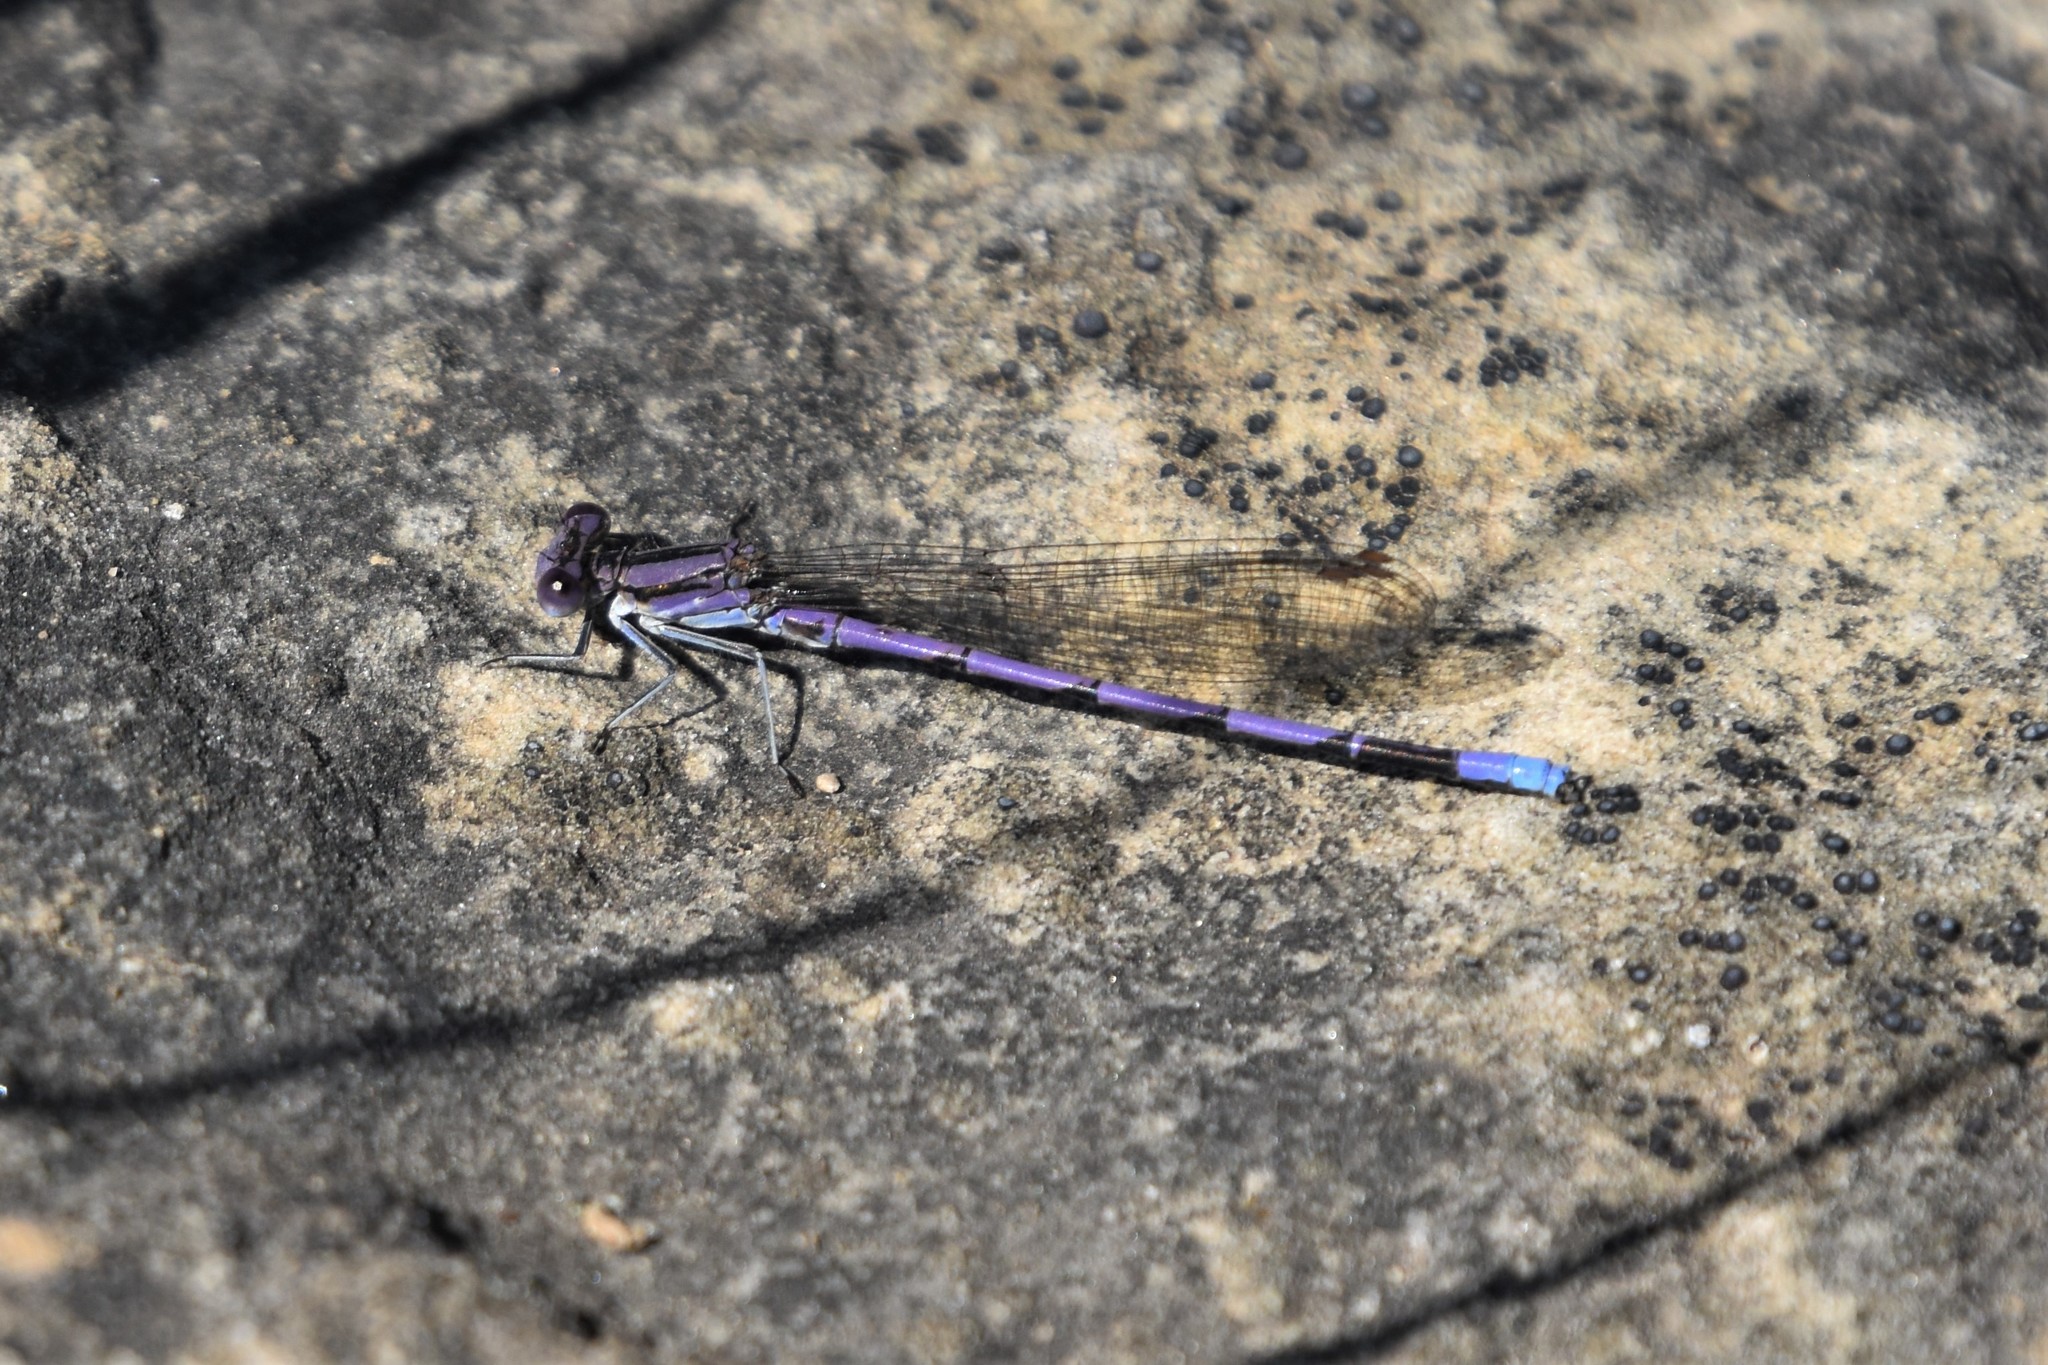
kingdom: Animalia
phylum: Arthropoda
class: Insecta
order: Odonata
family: Coenagrionidae
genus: Argia
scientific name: Argia fumipennis
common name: Variable dancer
